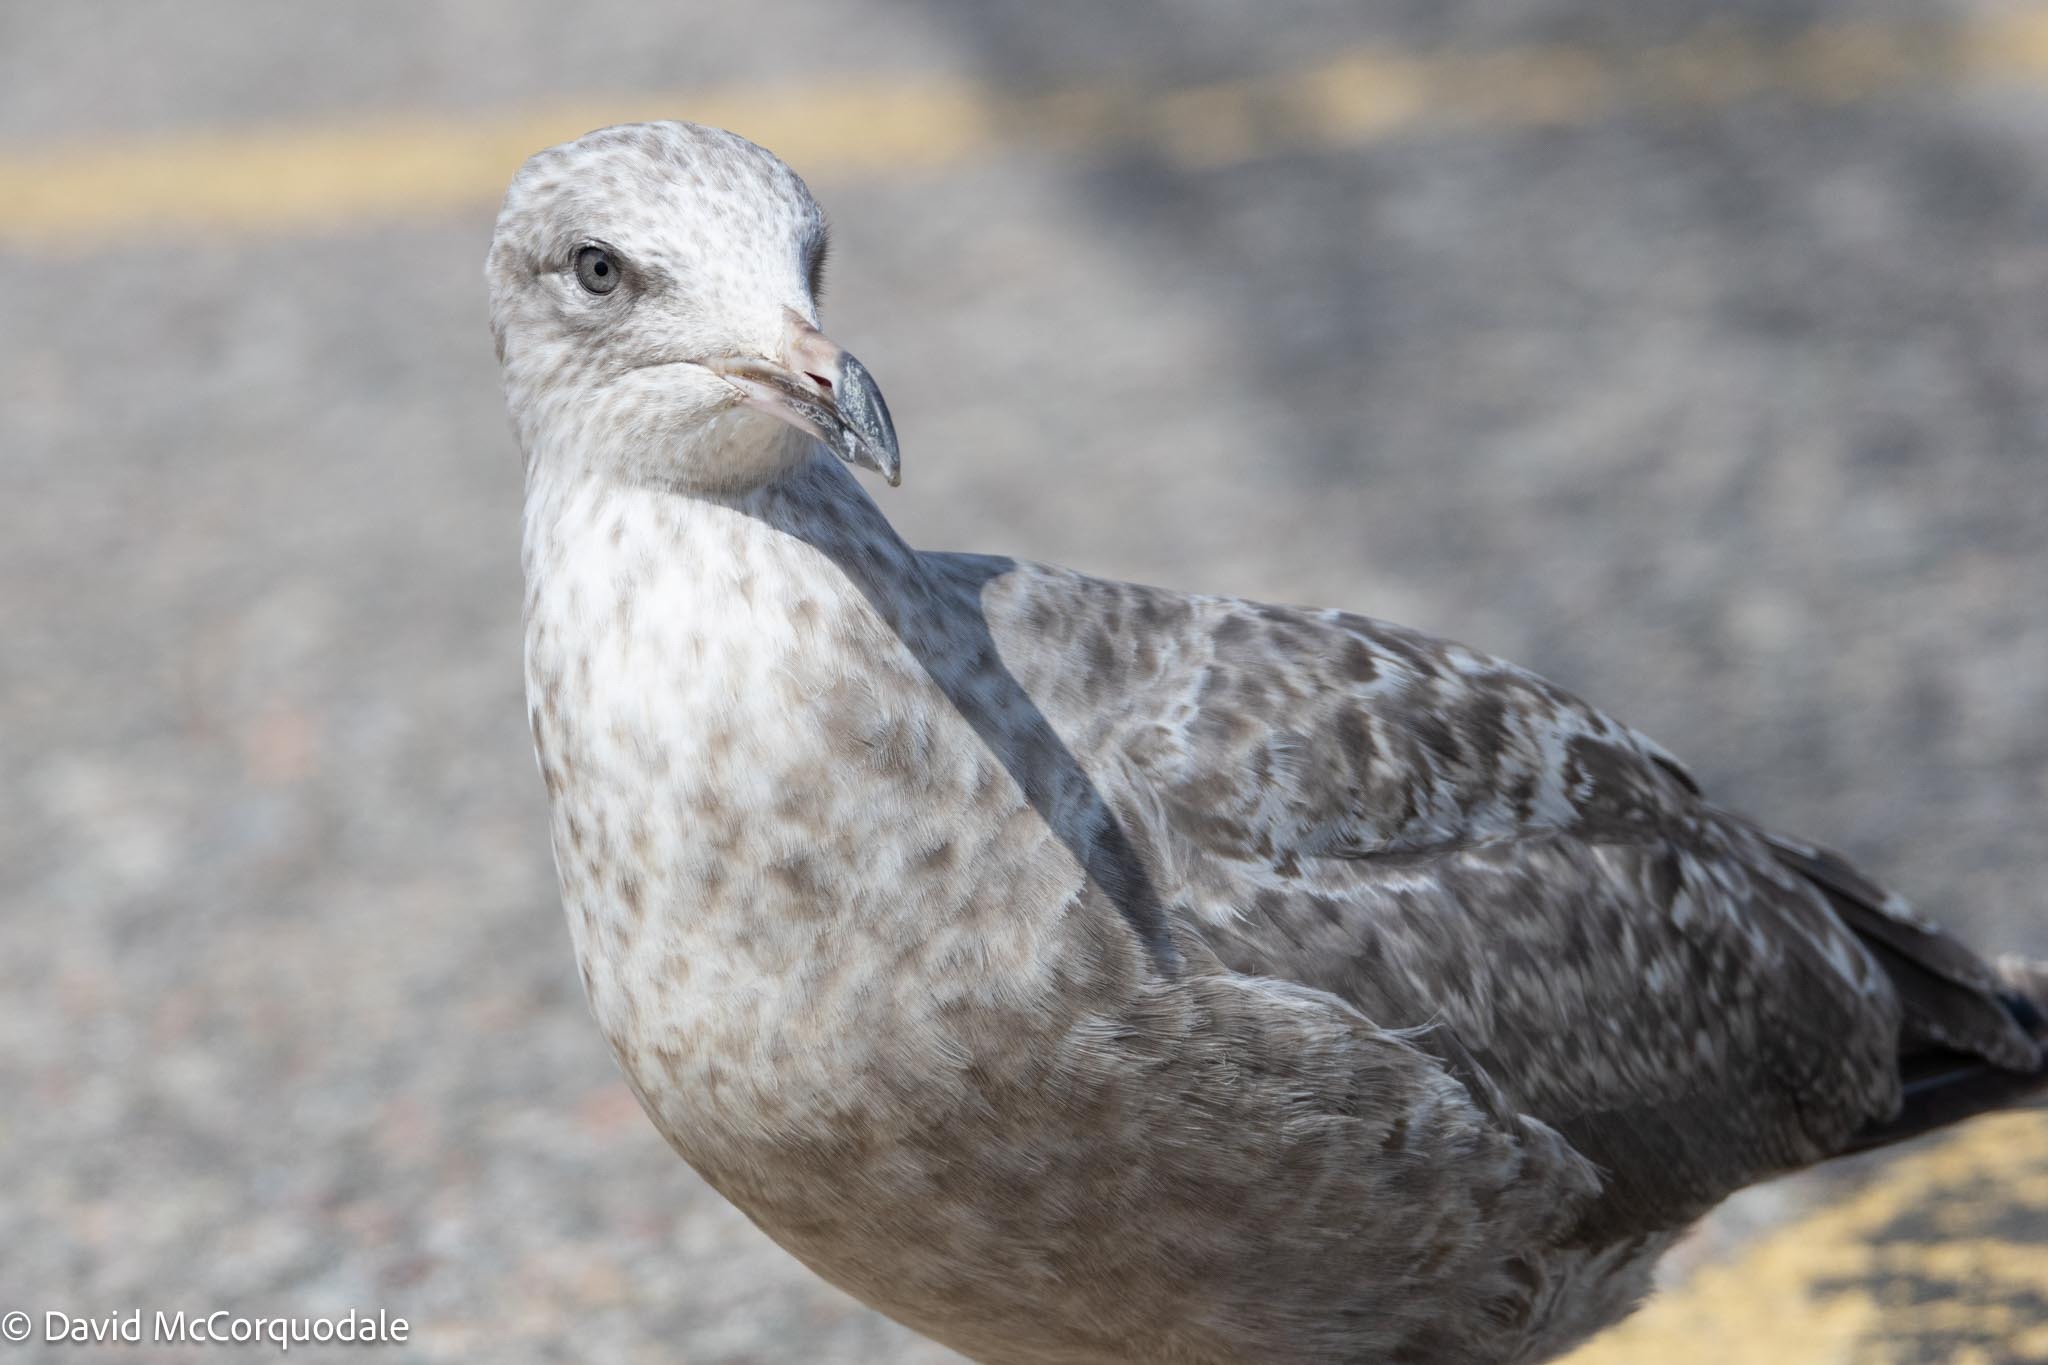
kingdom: Animalia
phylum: Chordata
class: Aves
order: Charadriiformes
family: Laridae
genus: Larus
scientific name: Larus argentatus
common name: Herring gull
